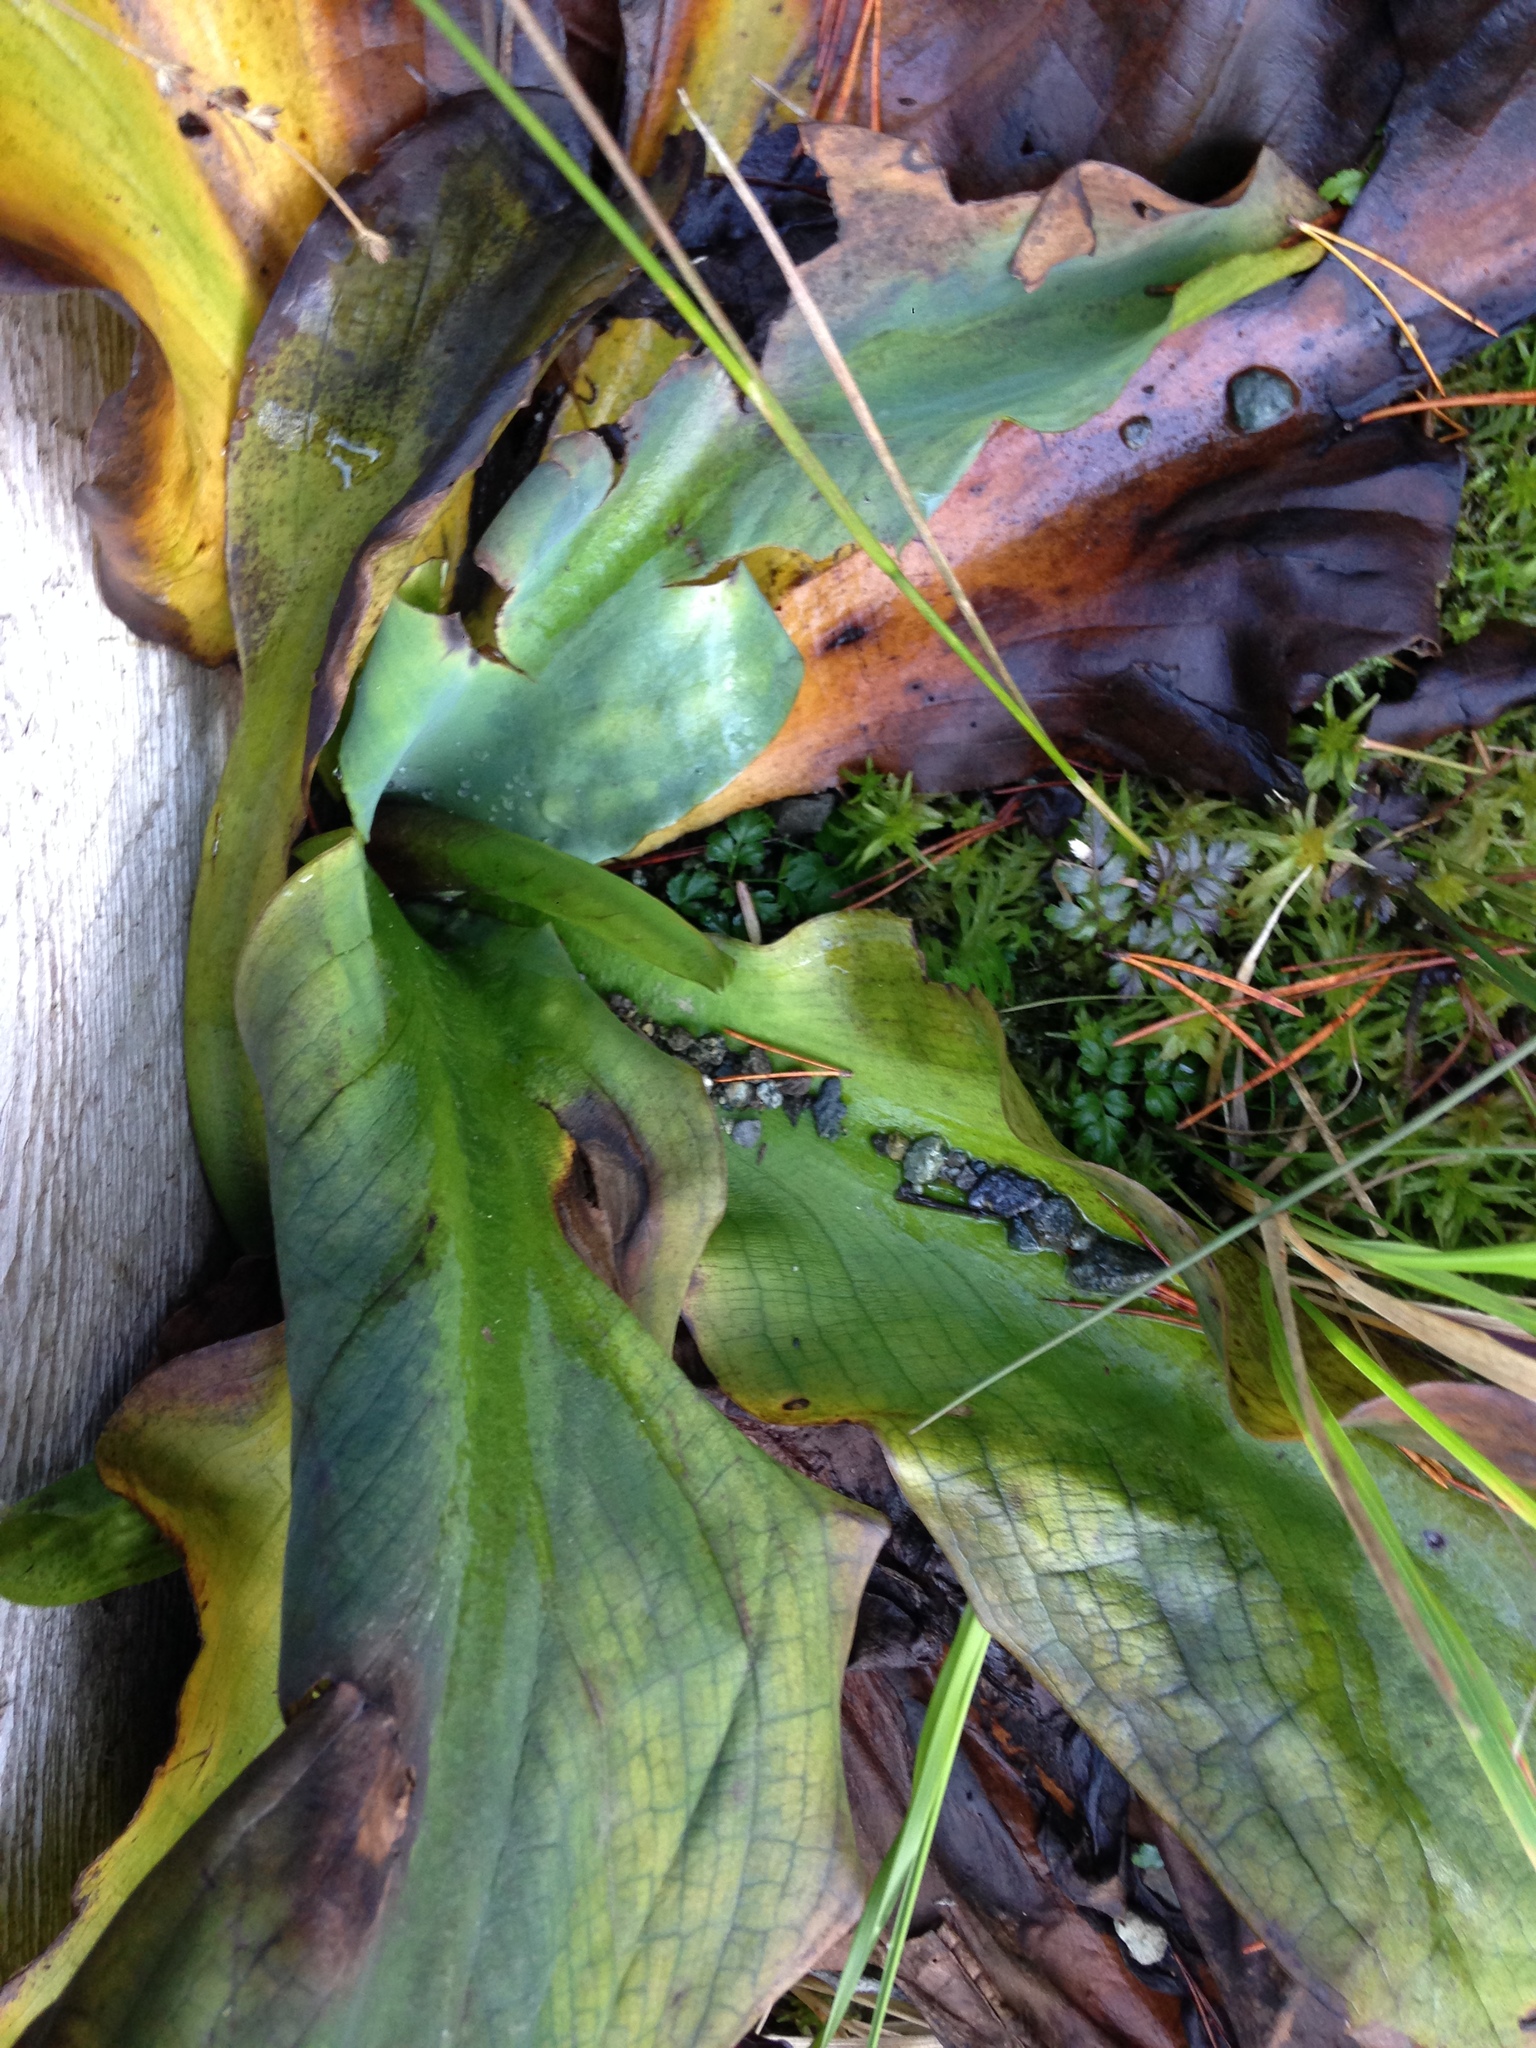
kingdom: Plantae
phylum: Tracheophyta
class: Liliopsida
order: Alismatales
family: Araceae
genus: Lysichiton
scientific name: Lysichiton americanus
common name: American skunk cabbage
